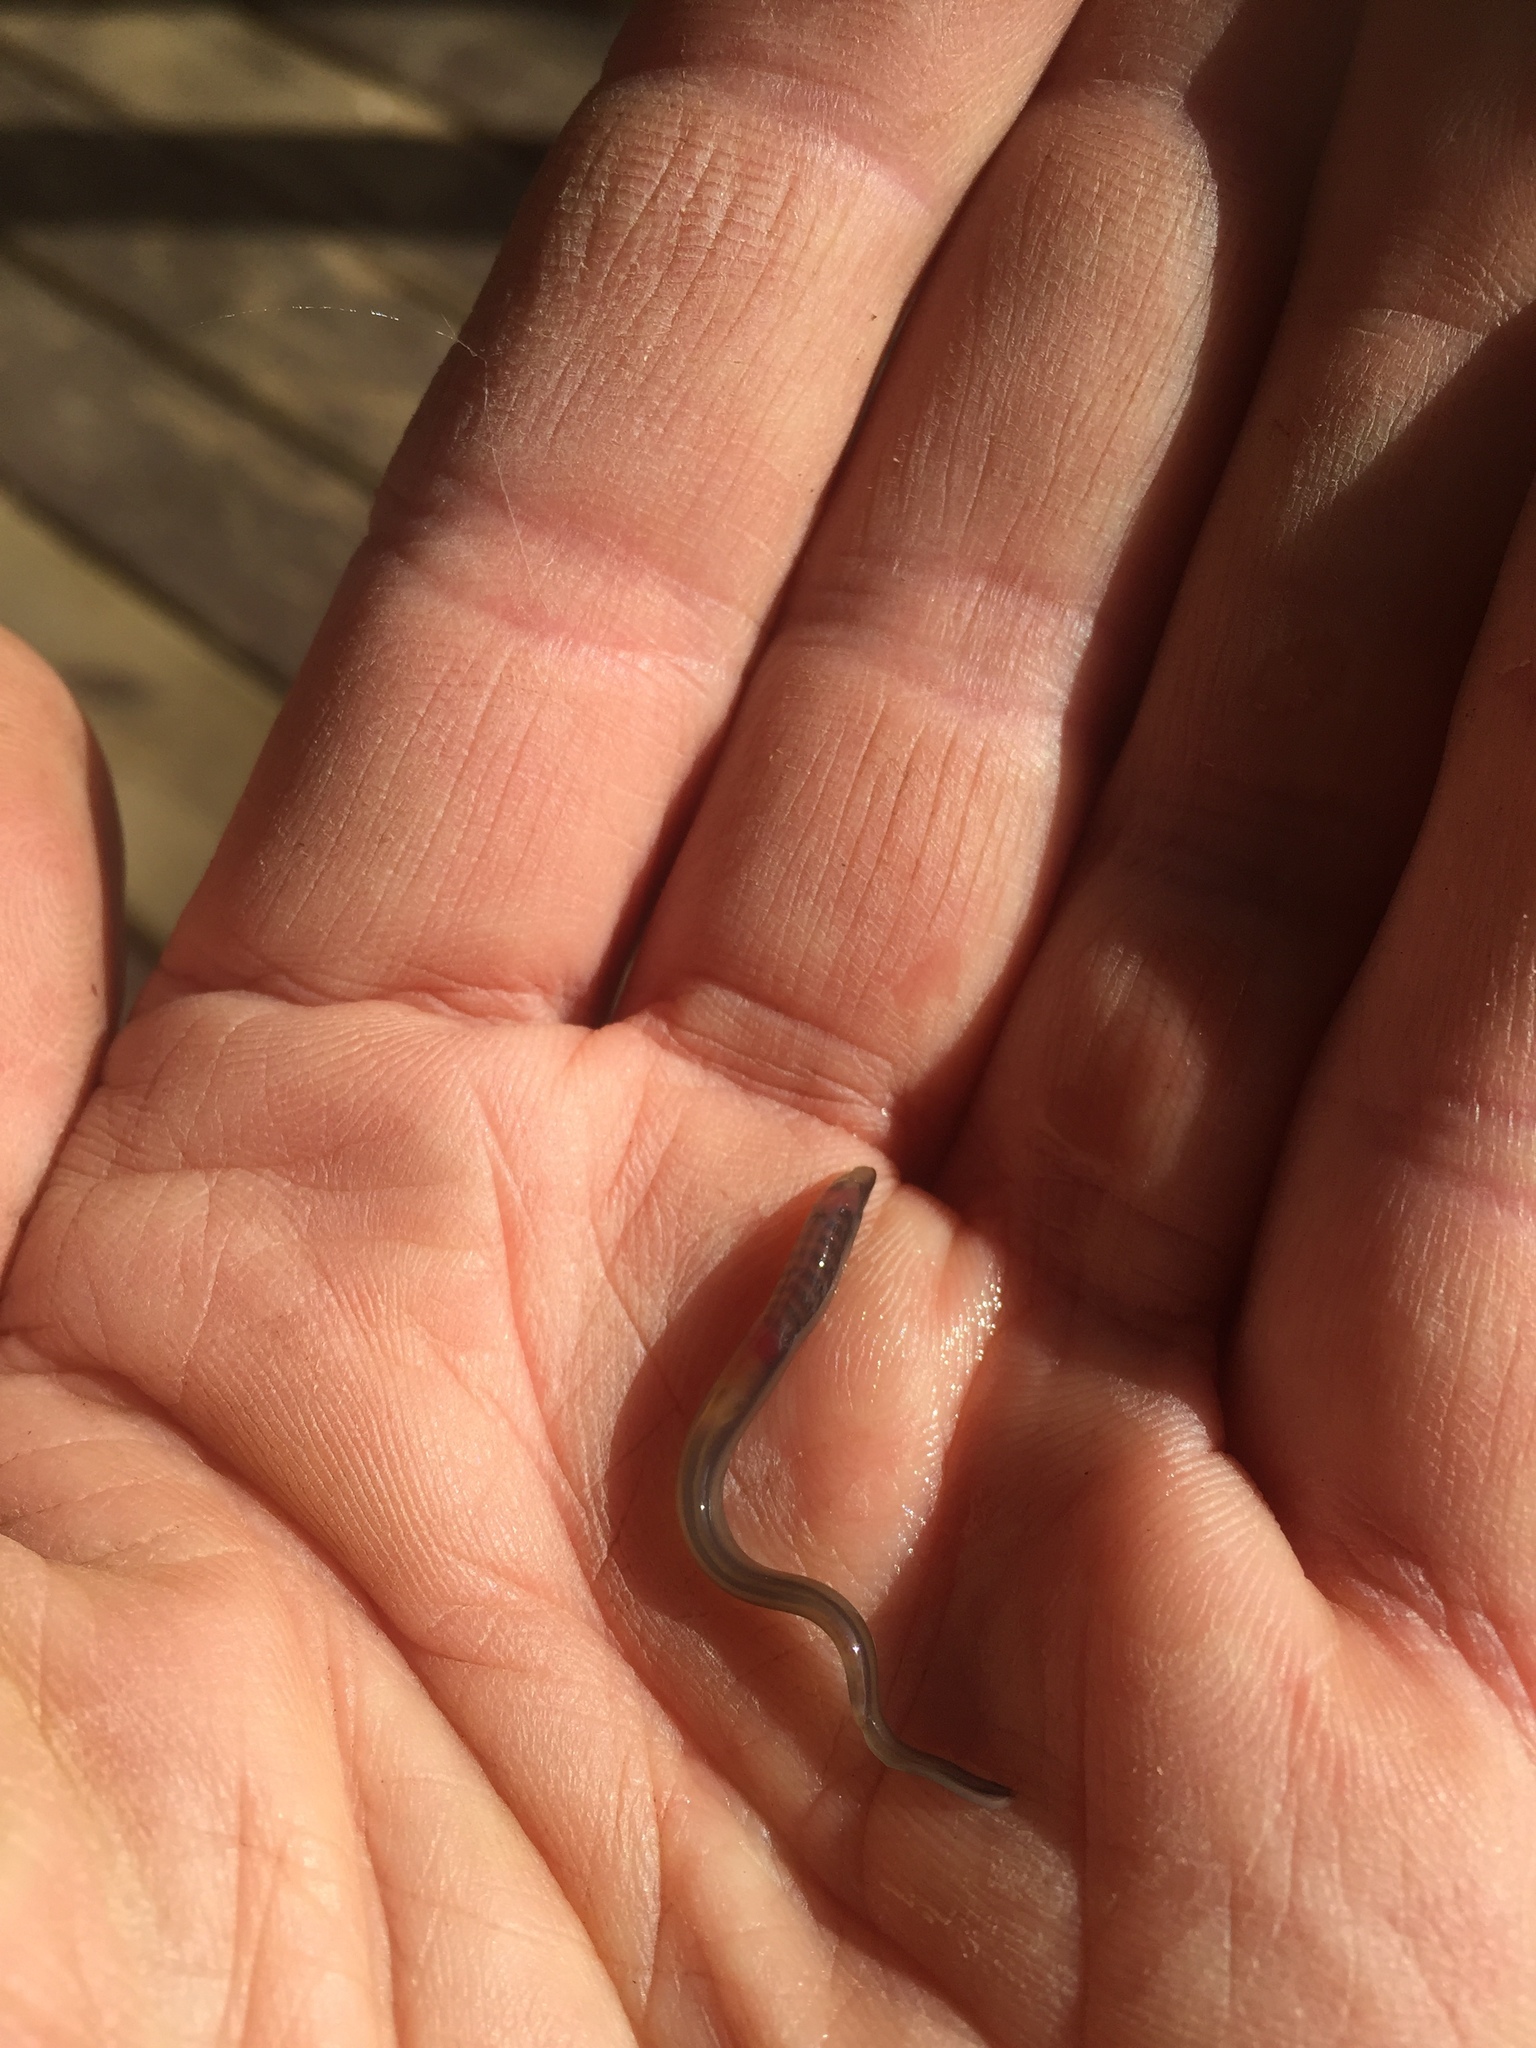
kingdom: Animalia
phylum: Chordata
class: Petromyzonti
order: Petromyzontiformes
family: Petromyzontidae
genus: Lampetra
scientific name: Lampetra planeri
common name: Brook lamprey
